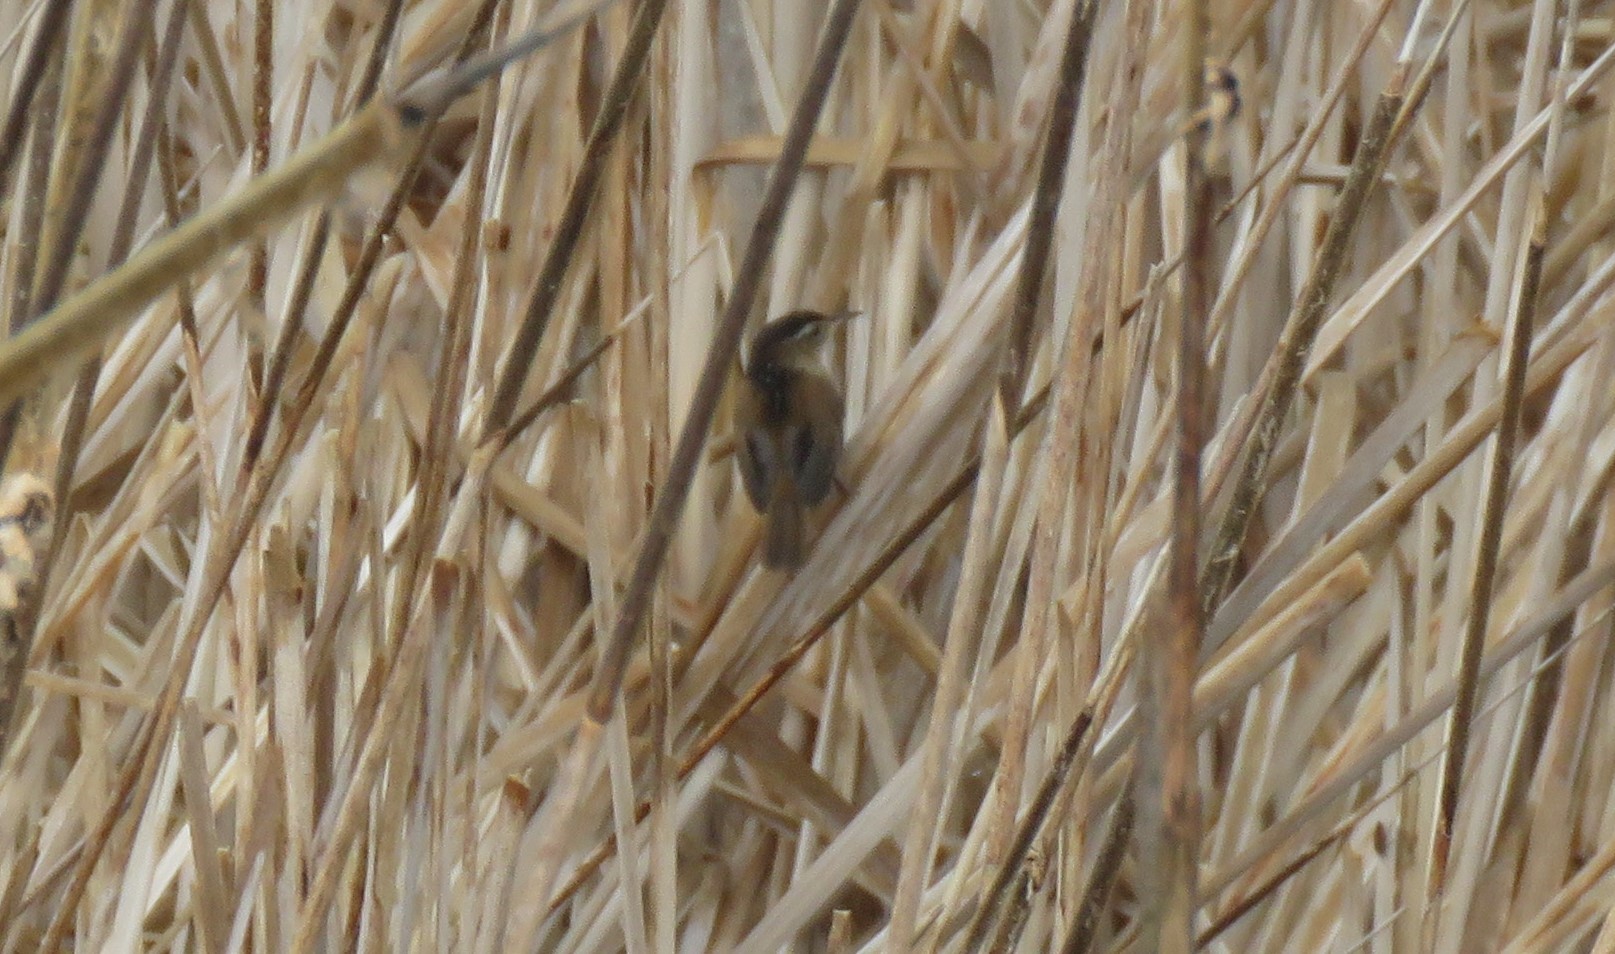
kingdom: Animalia
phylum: Chordata
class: Aves
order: Passeriformes
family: Troglodytidae
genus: Cistothorus
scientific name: Cistothorus palustris
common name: Marsh wren
